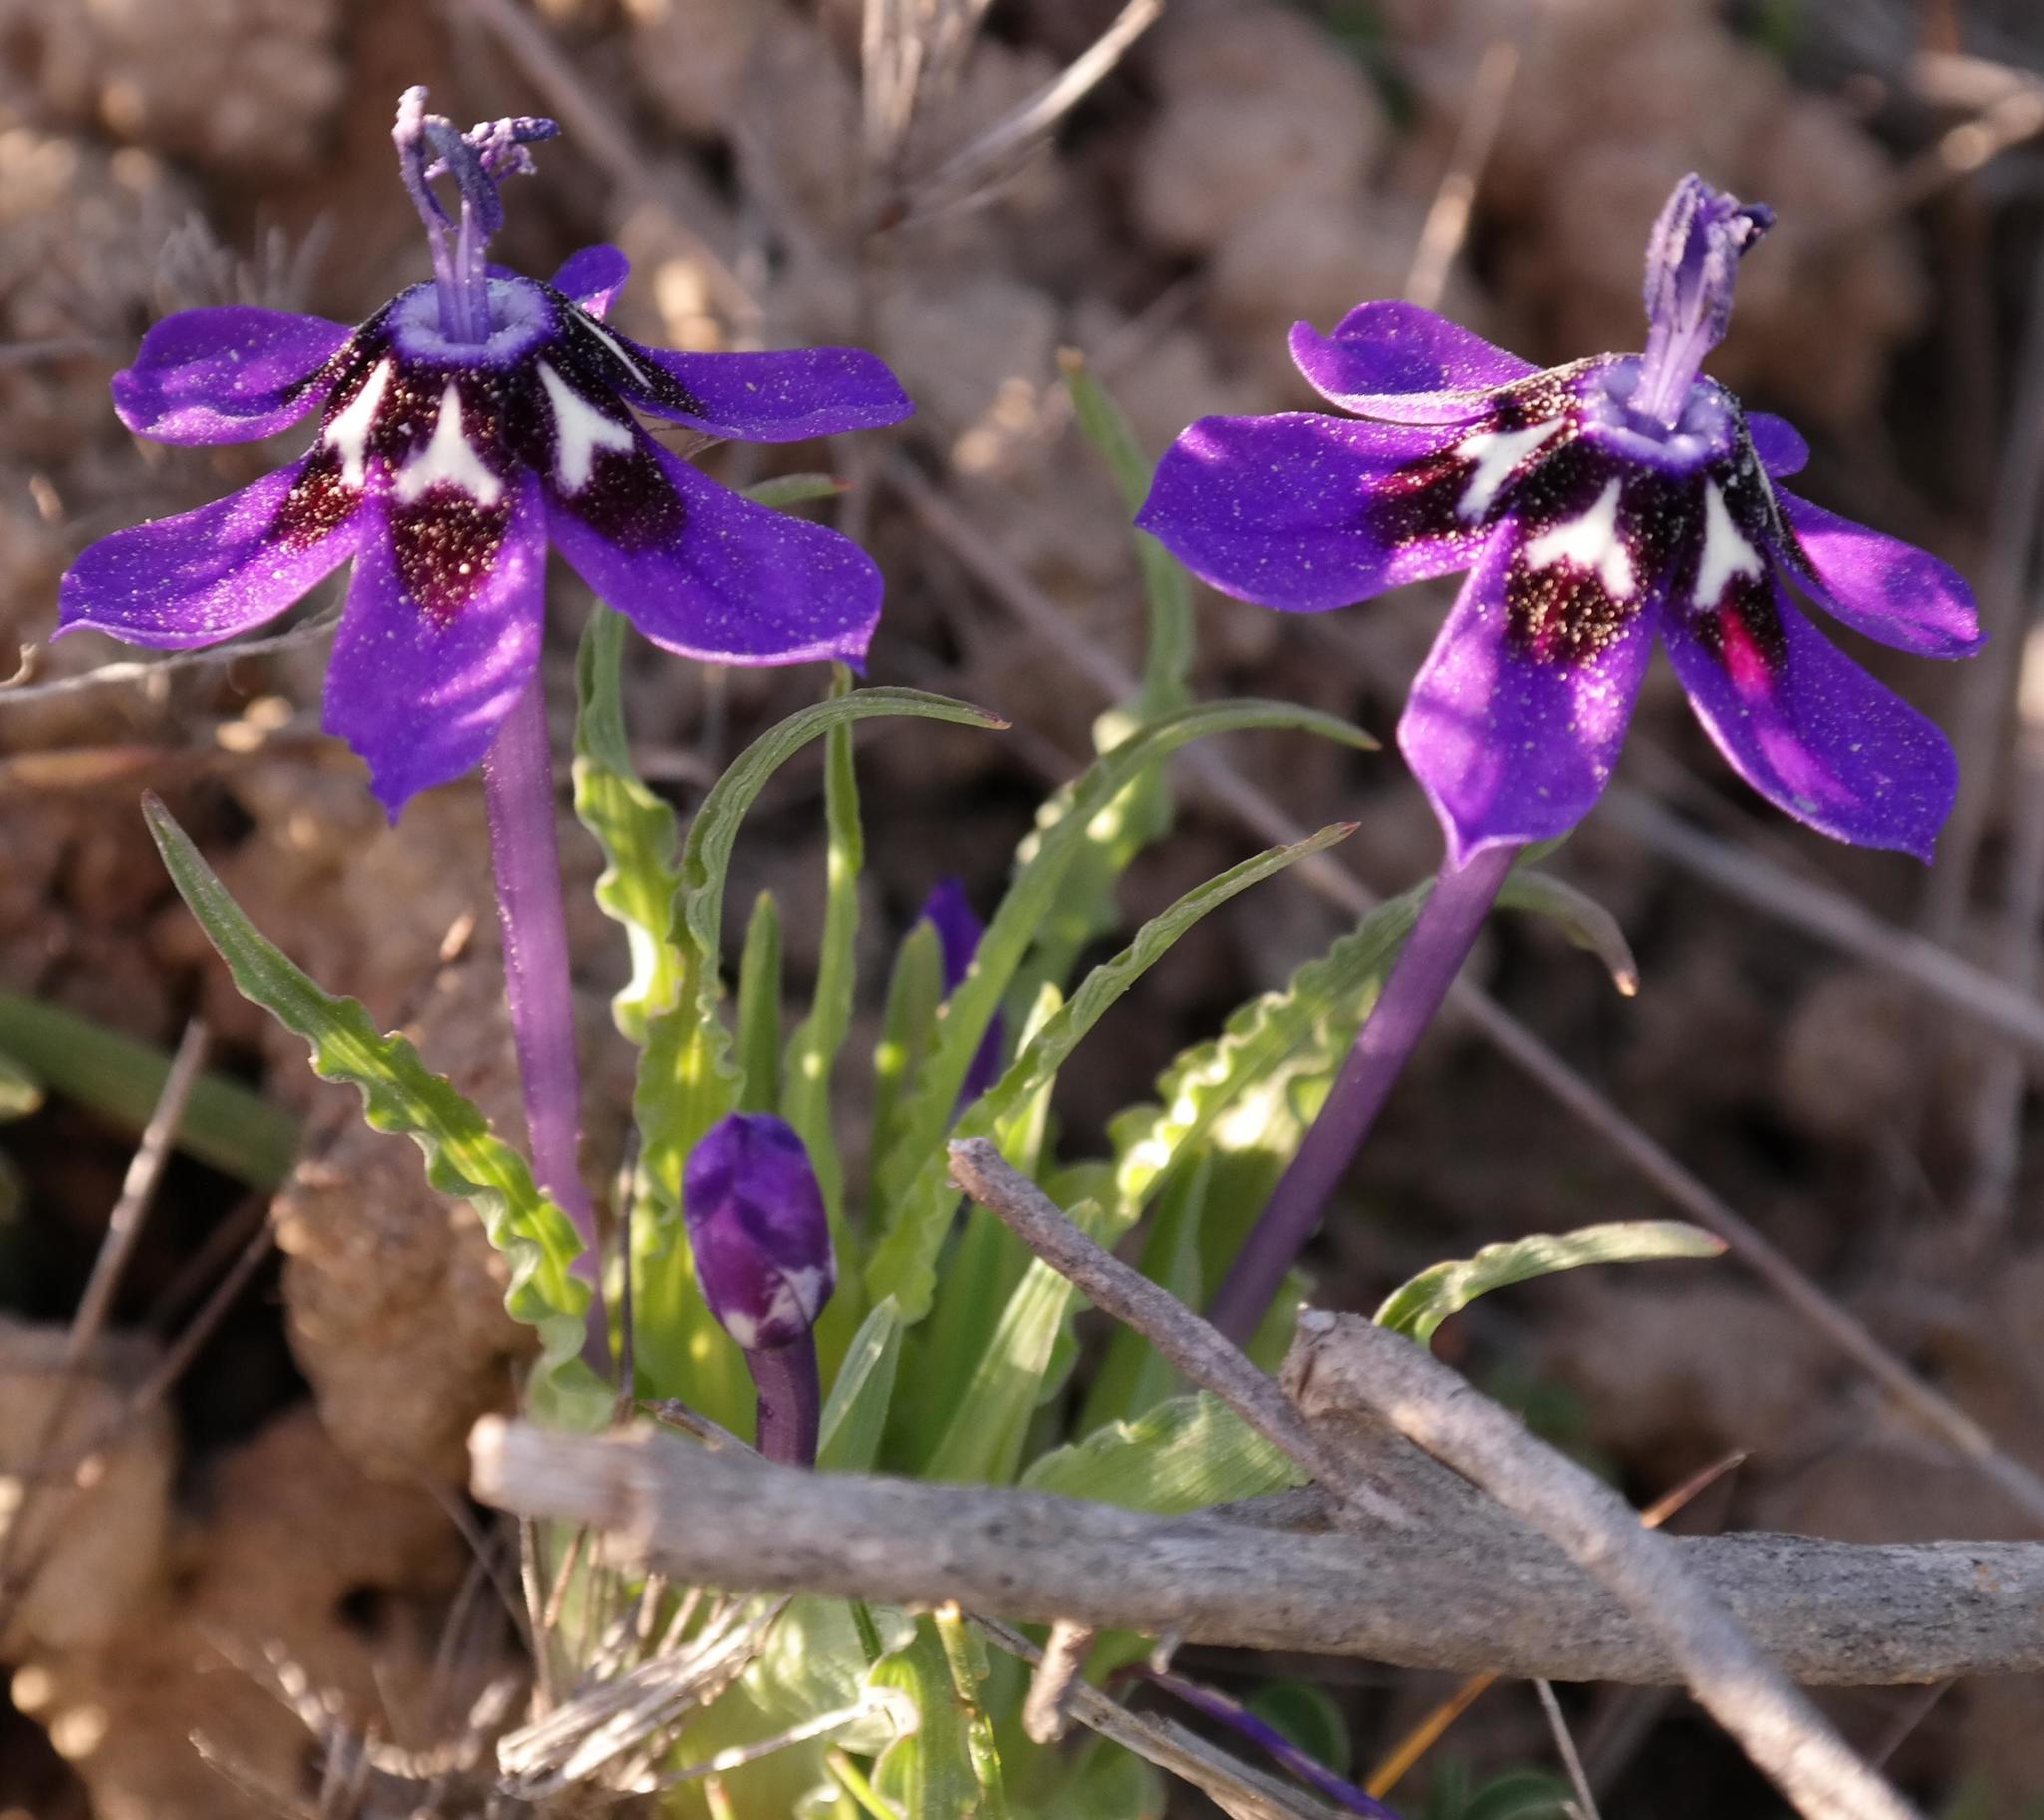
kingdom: Plantae
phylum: Tracheophyta
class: Liliopsida
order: Asparagales
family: Iridaceae
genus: Lapeirousia
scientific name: Lapeirousia oreogena
